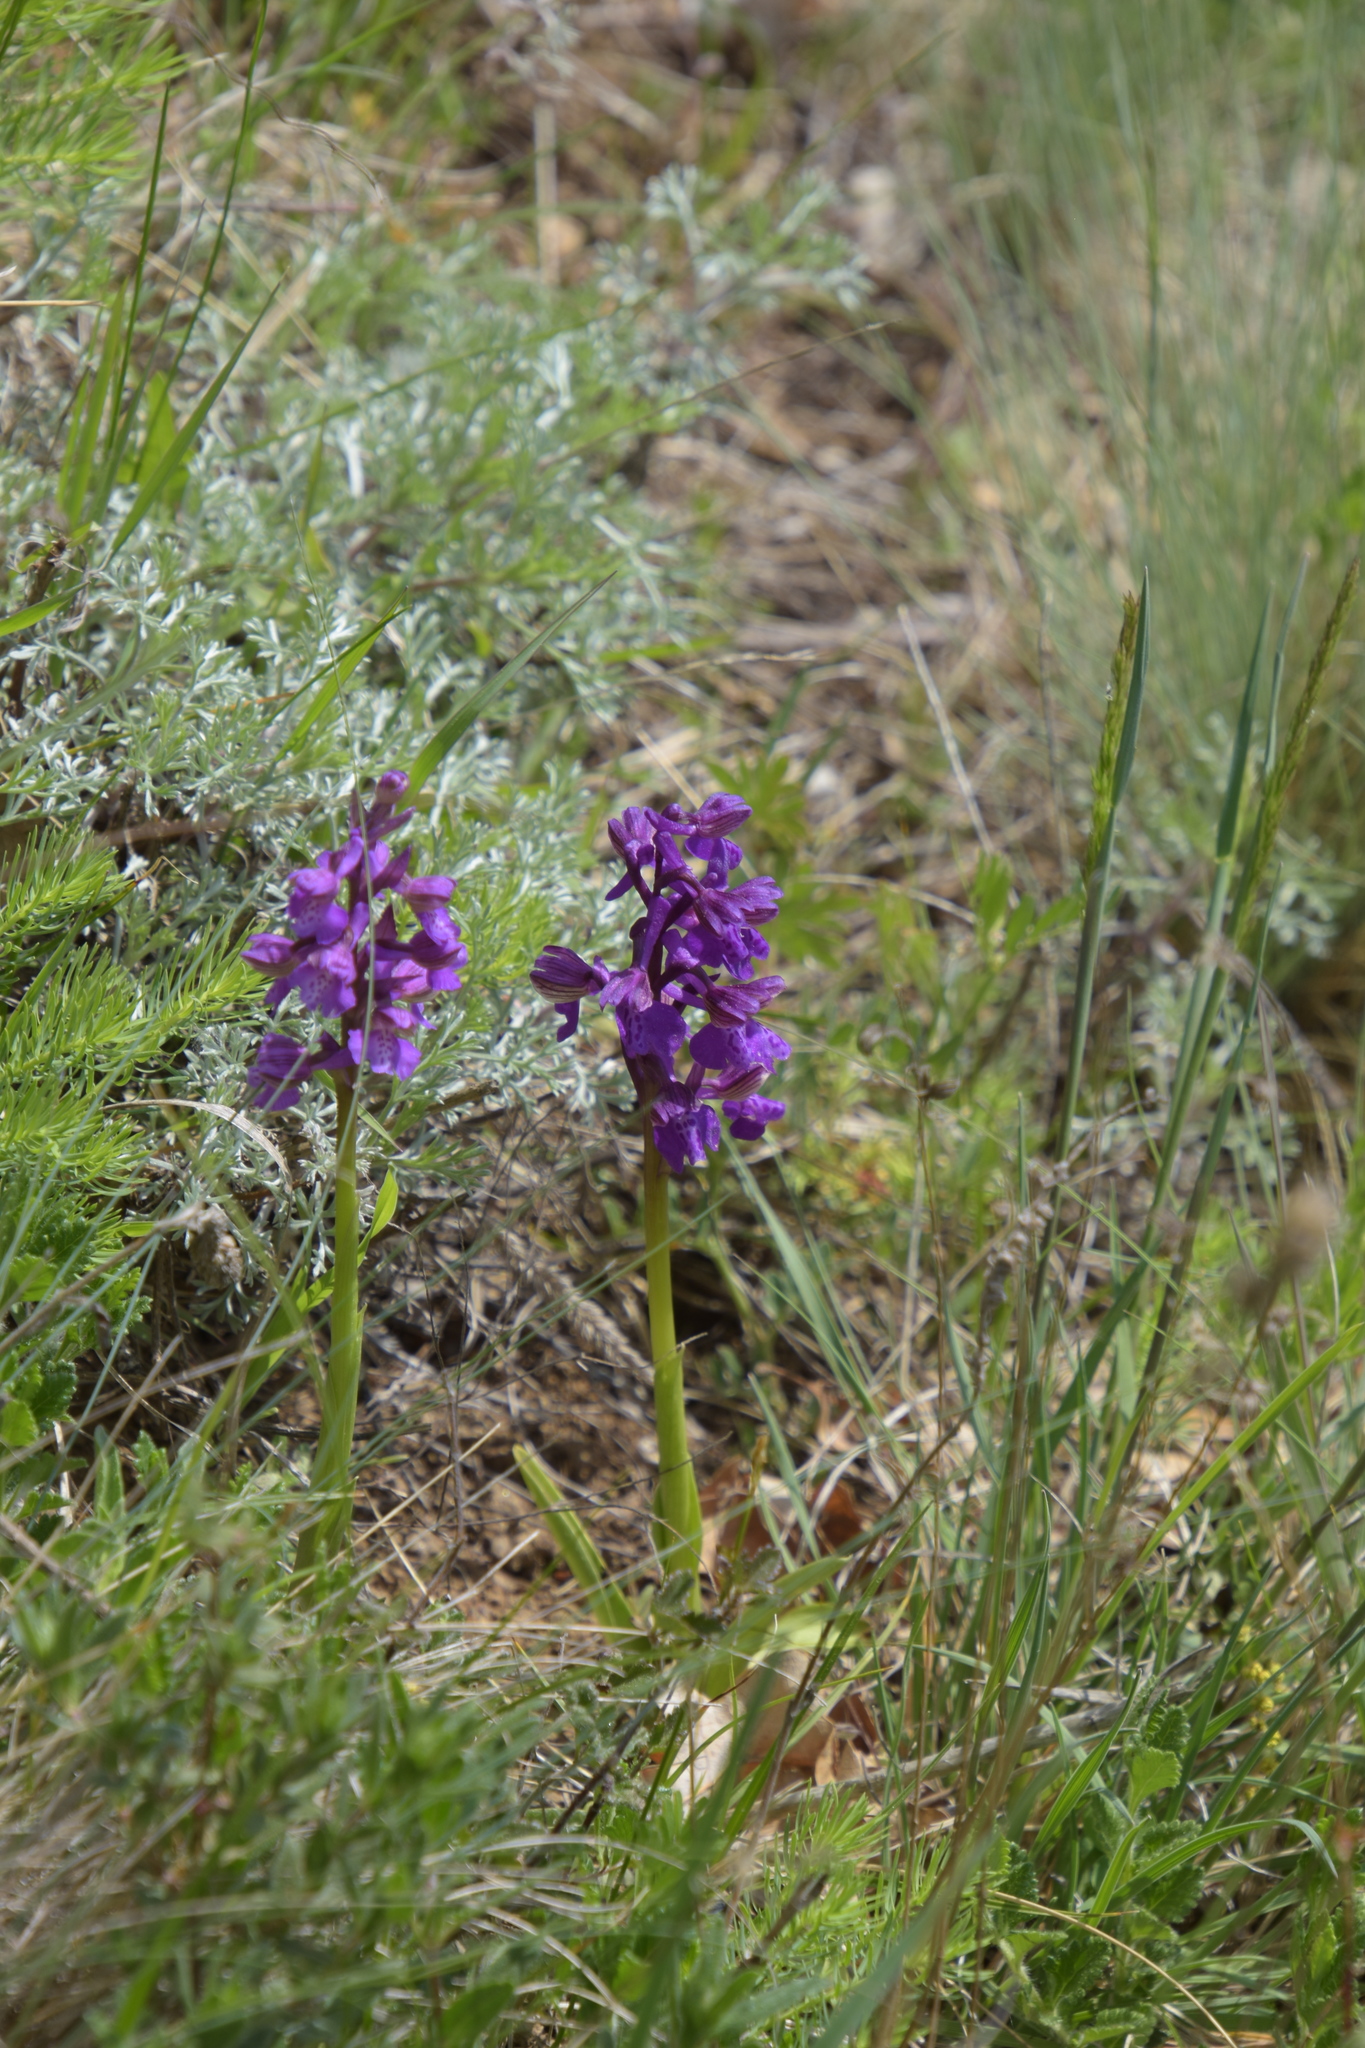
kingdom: Plantae
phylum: Tracheophyta
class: Liliopsida
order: Asparagales
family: Orchidaceae
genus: Anacamptis
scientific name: Anacamptis morio
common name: Green-winged orchid
